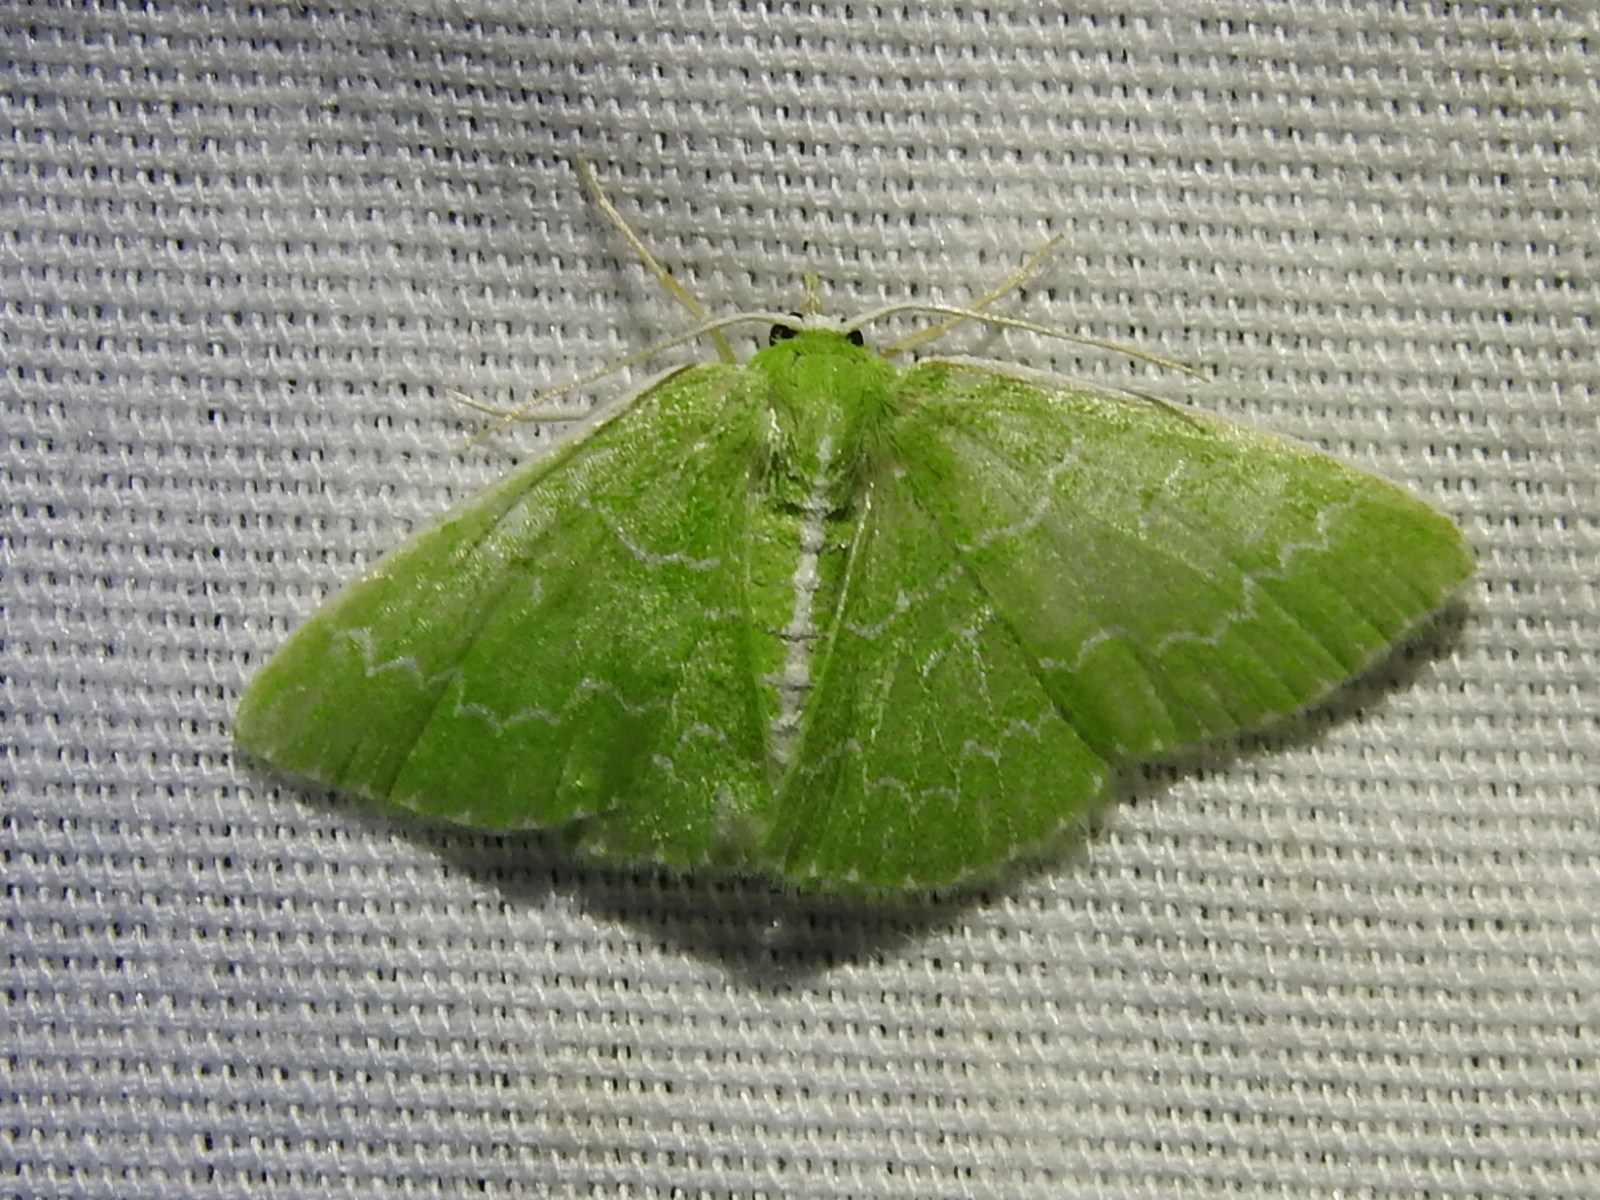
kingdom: Animalia
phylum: Arthropoda
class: Insecta
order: Lepidoptera
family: Geometridae
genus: Synchlora
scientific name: Synchlora frondaria
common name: Southern emerald
